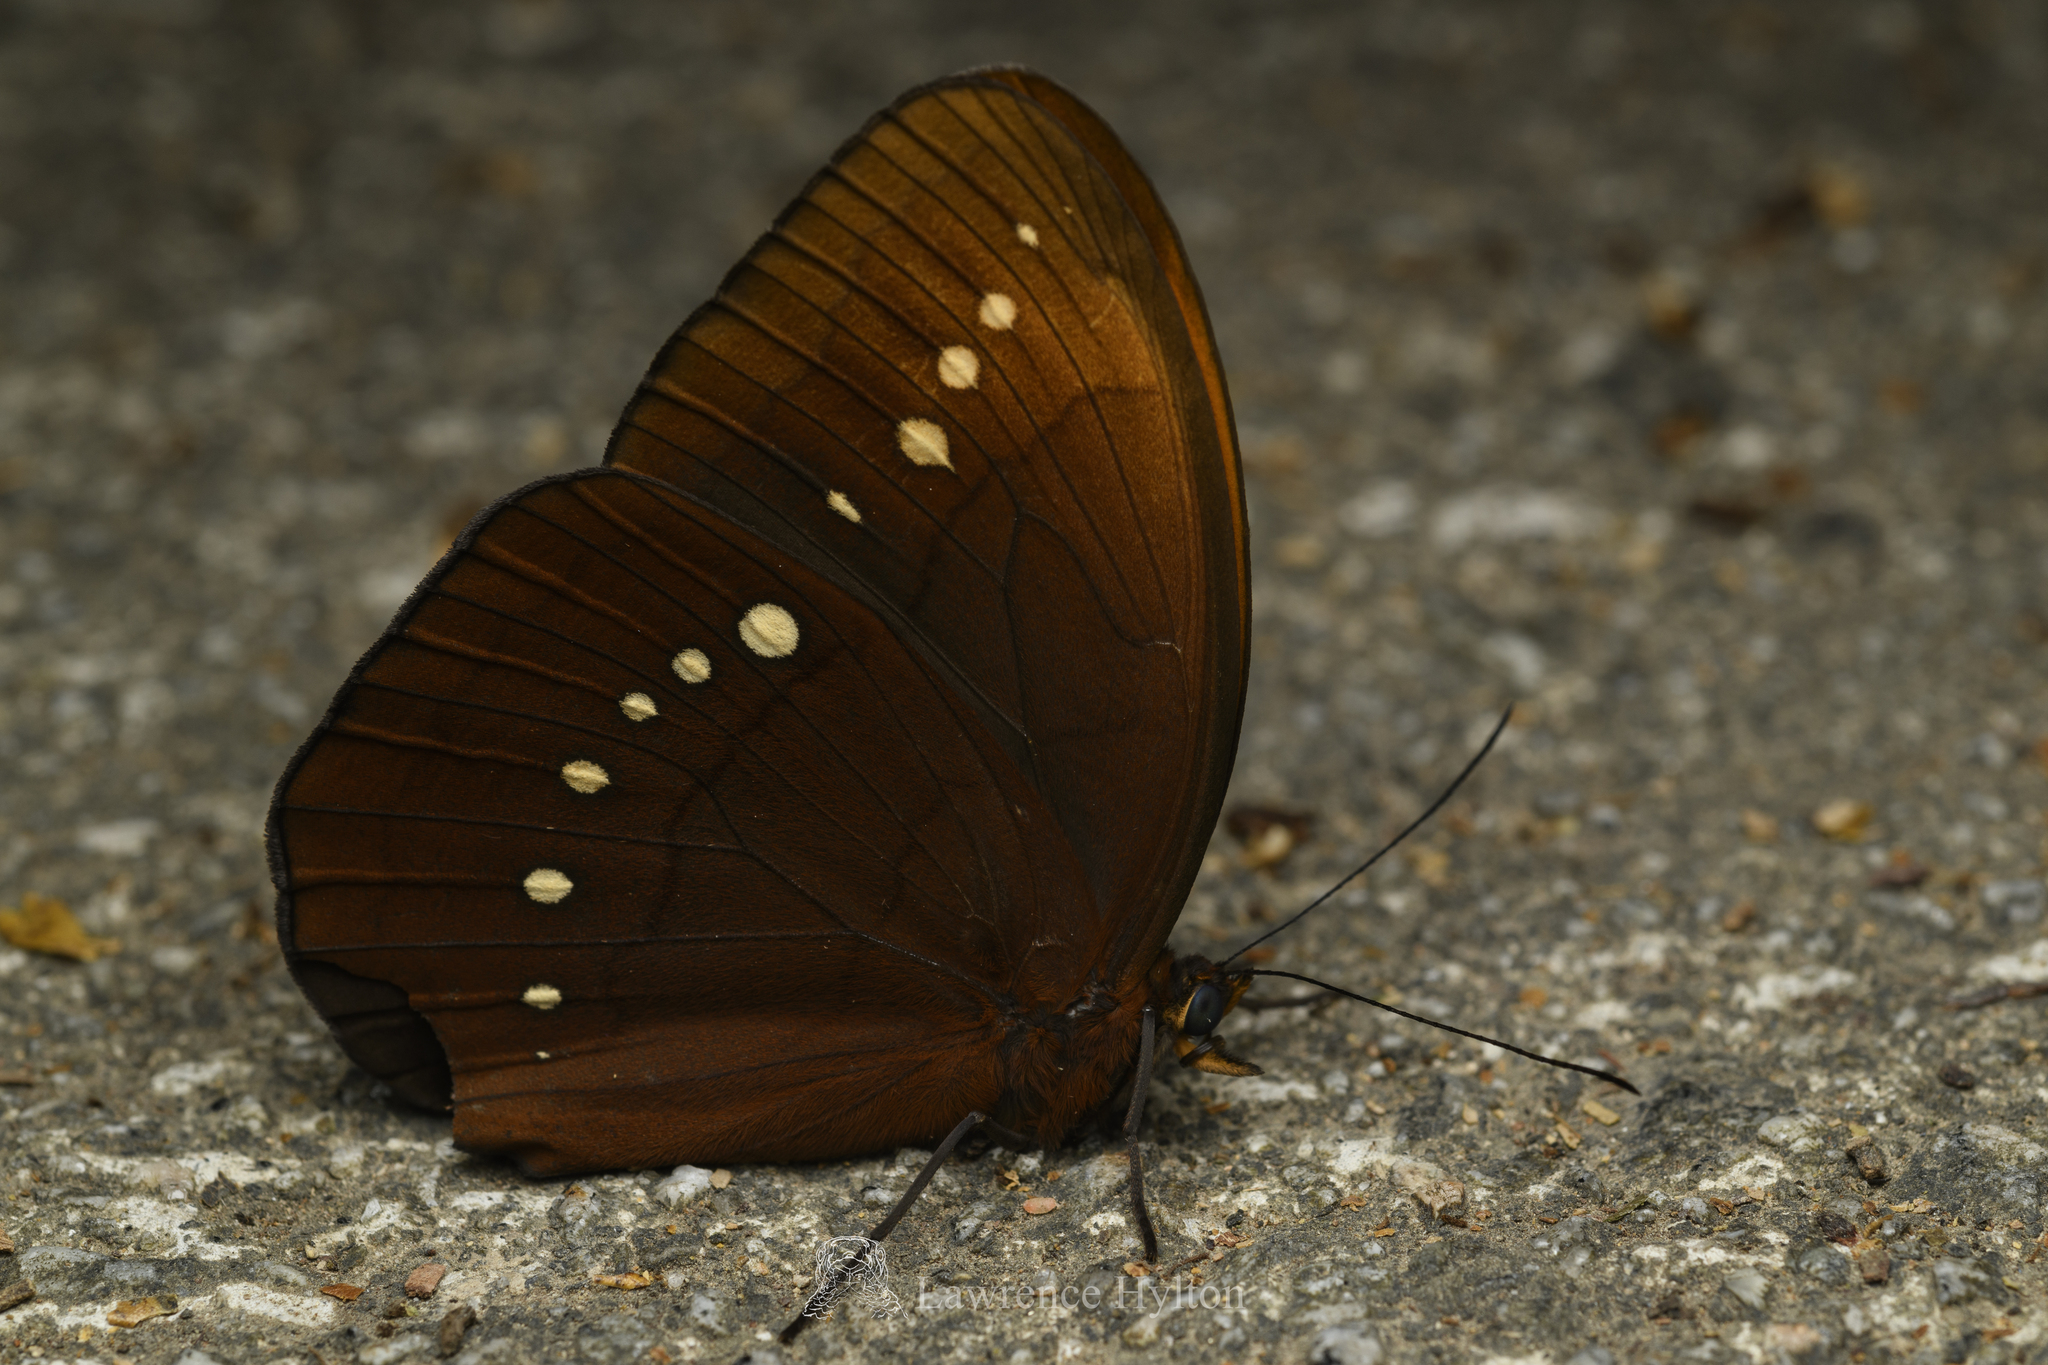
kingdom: Animalia
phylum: Arthropoda
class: Insecta
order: Lepidoptera
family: Nymphalidae
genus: Faunis
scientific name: Faunis eumeus
